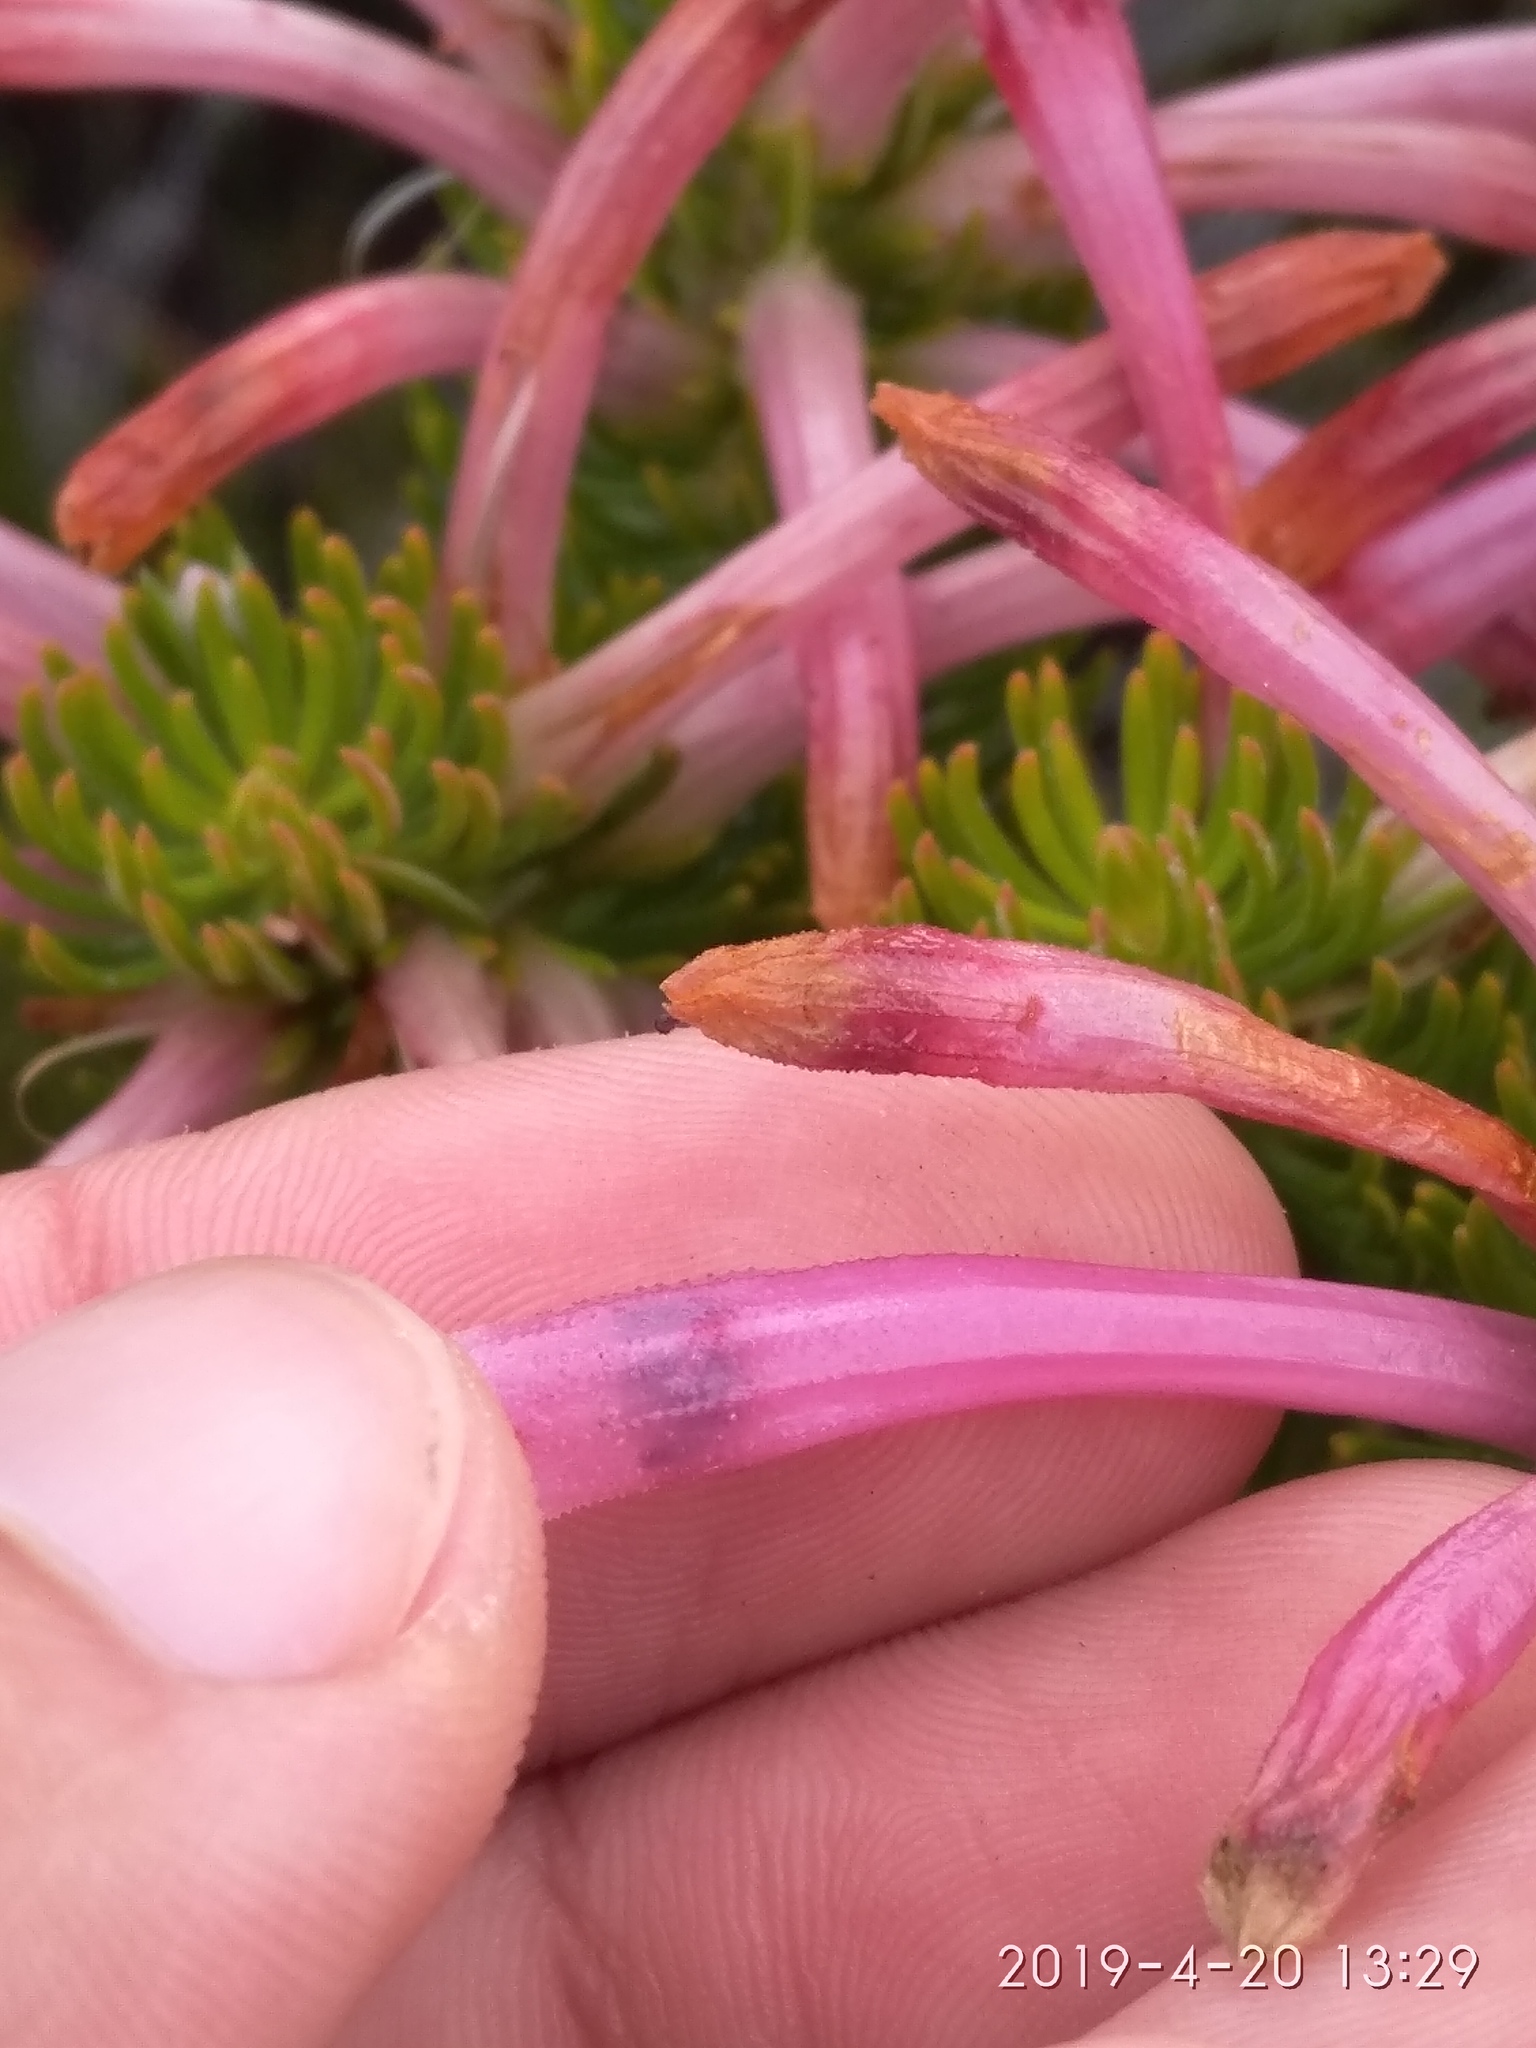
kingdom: Plantae
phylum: Tracheophyta
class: Magnoliopsida
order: Ericales
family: Ericaceae
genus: Erica
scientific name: Erica thomae
